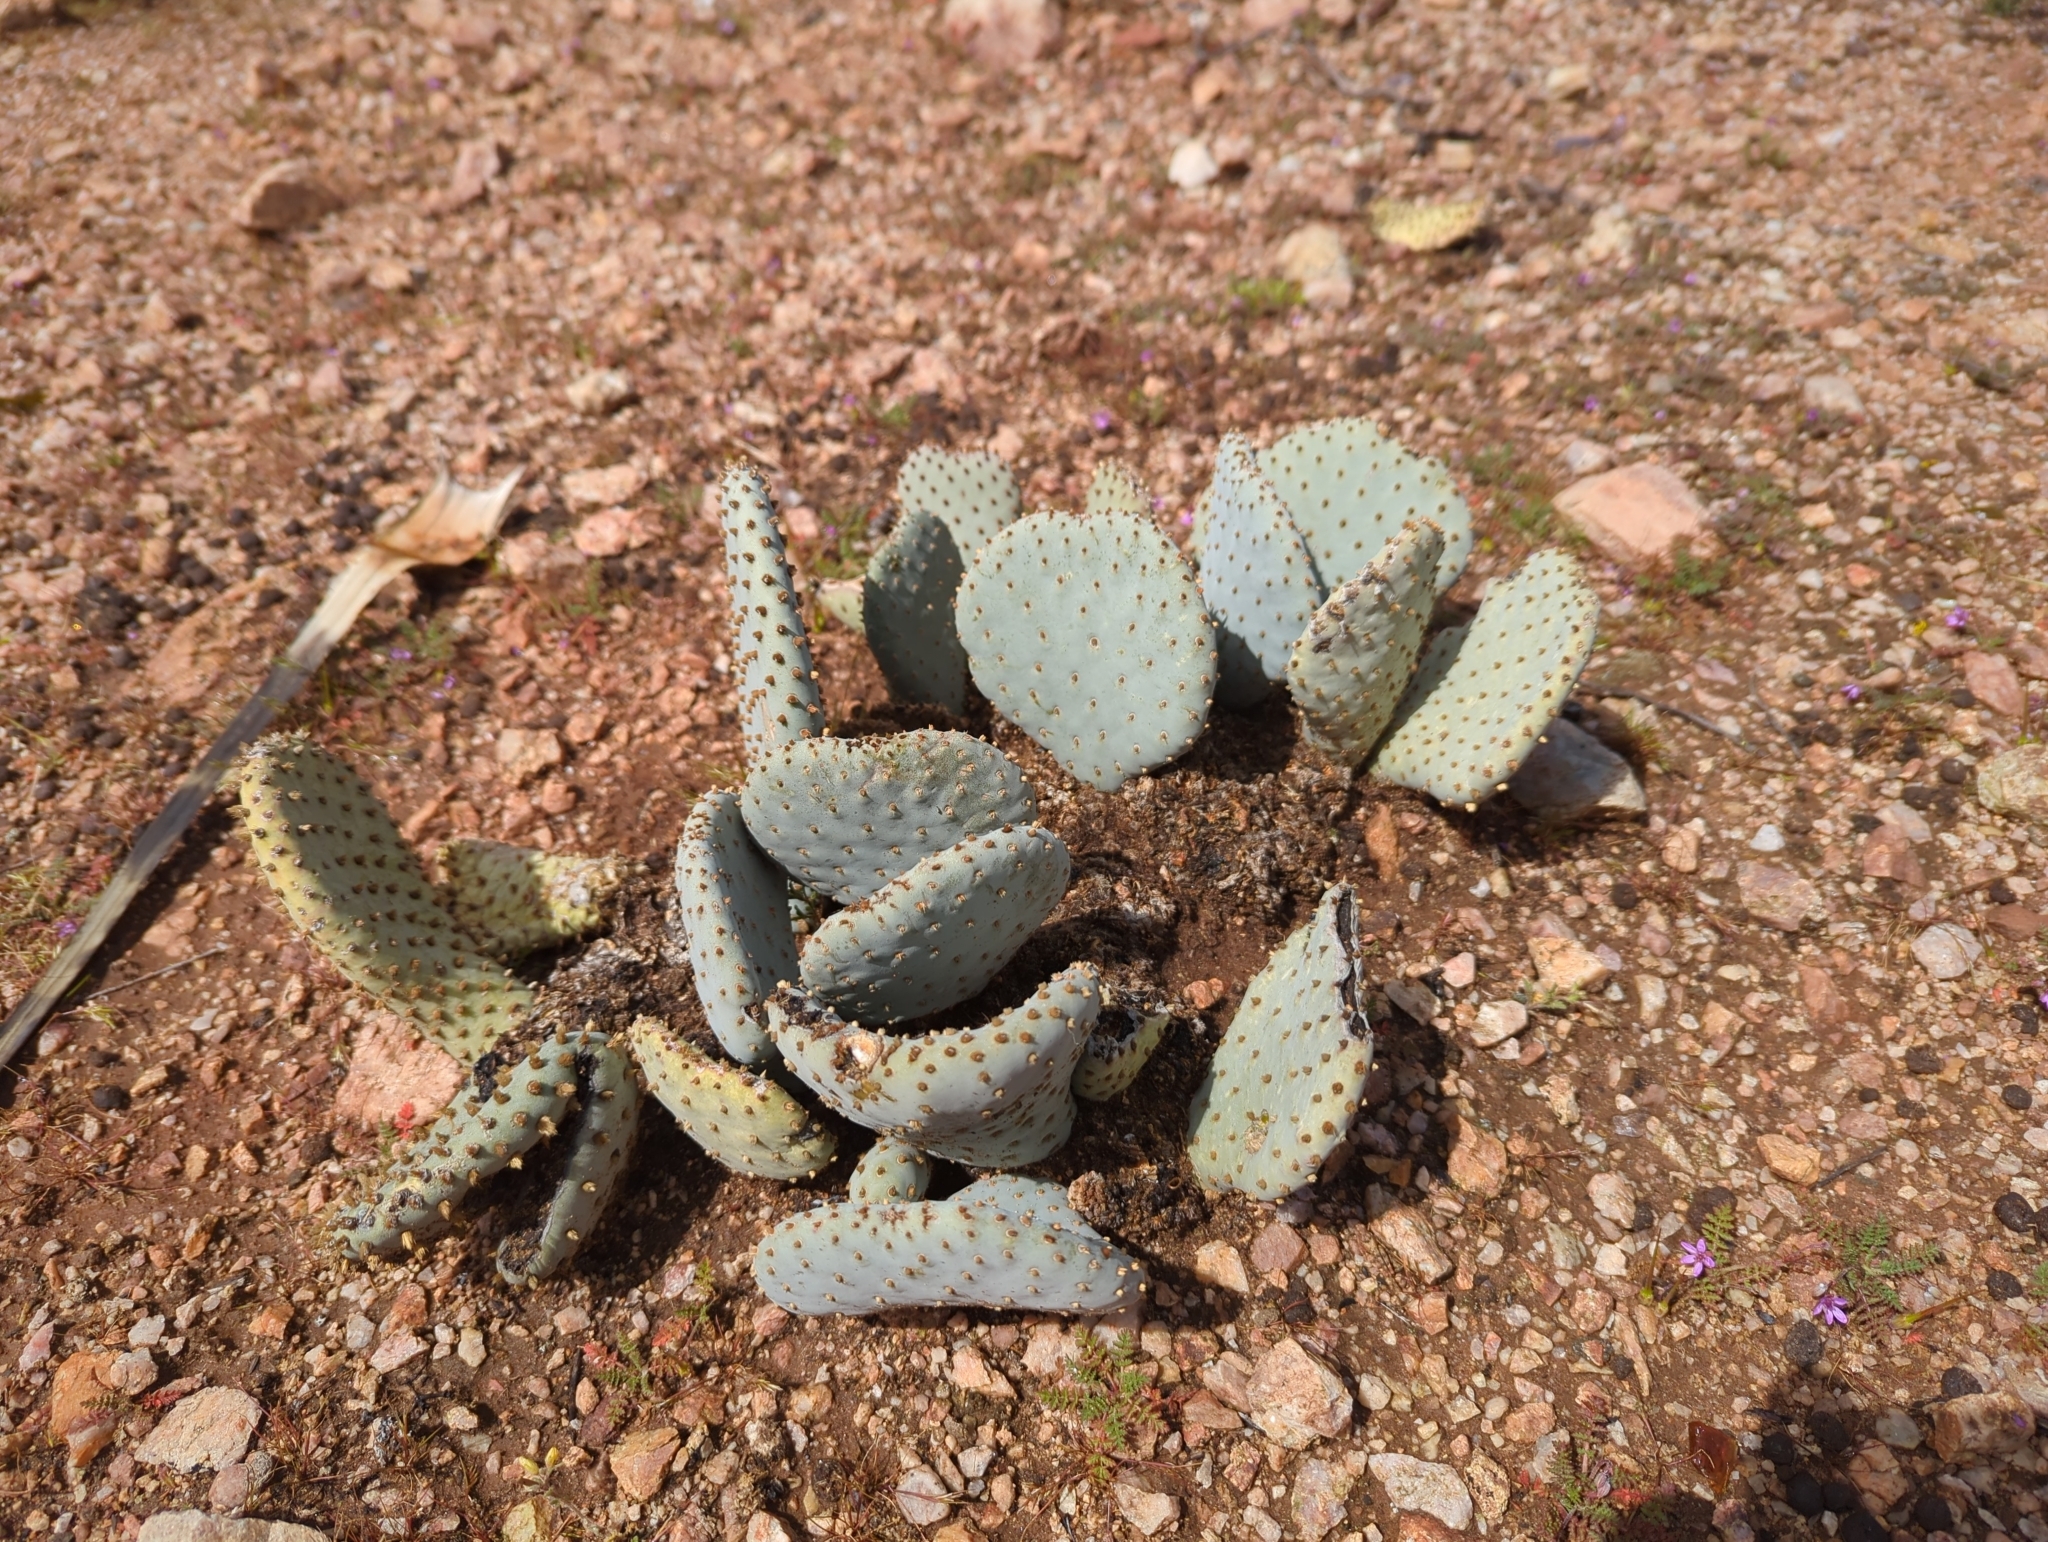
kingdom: Plantae
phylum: Tracheophyta
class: Magnoliopsida
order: Caryophyllales
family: Cactaceae
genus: Opuntia
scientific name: Opuntia basilaris
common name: Beavertail prickly-pear
